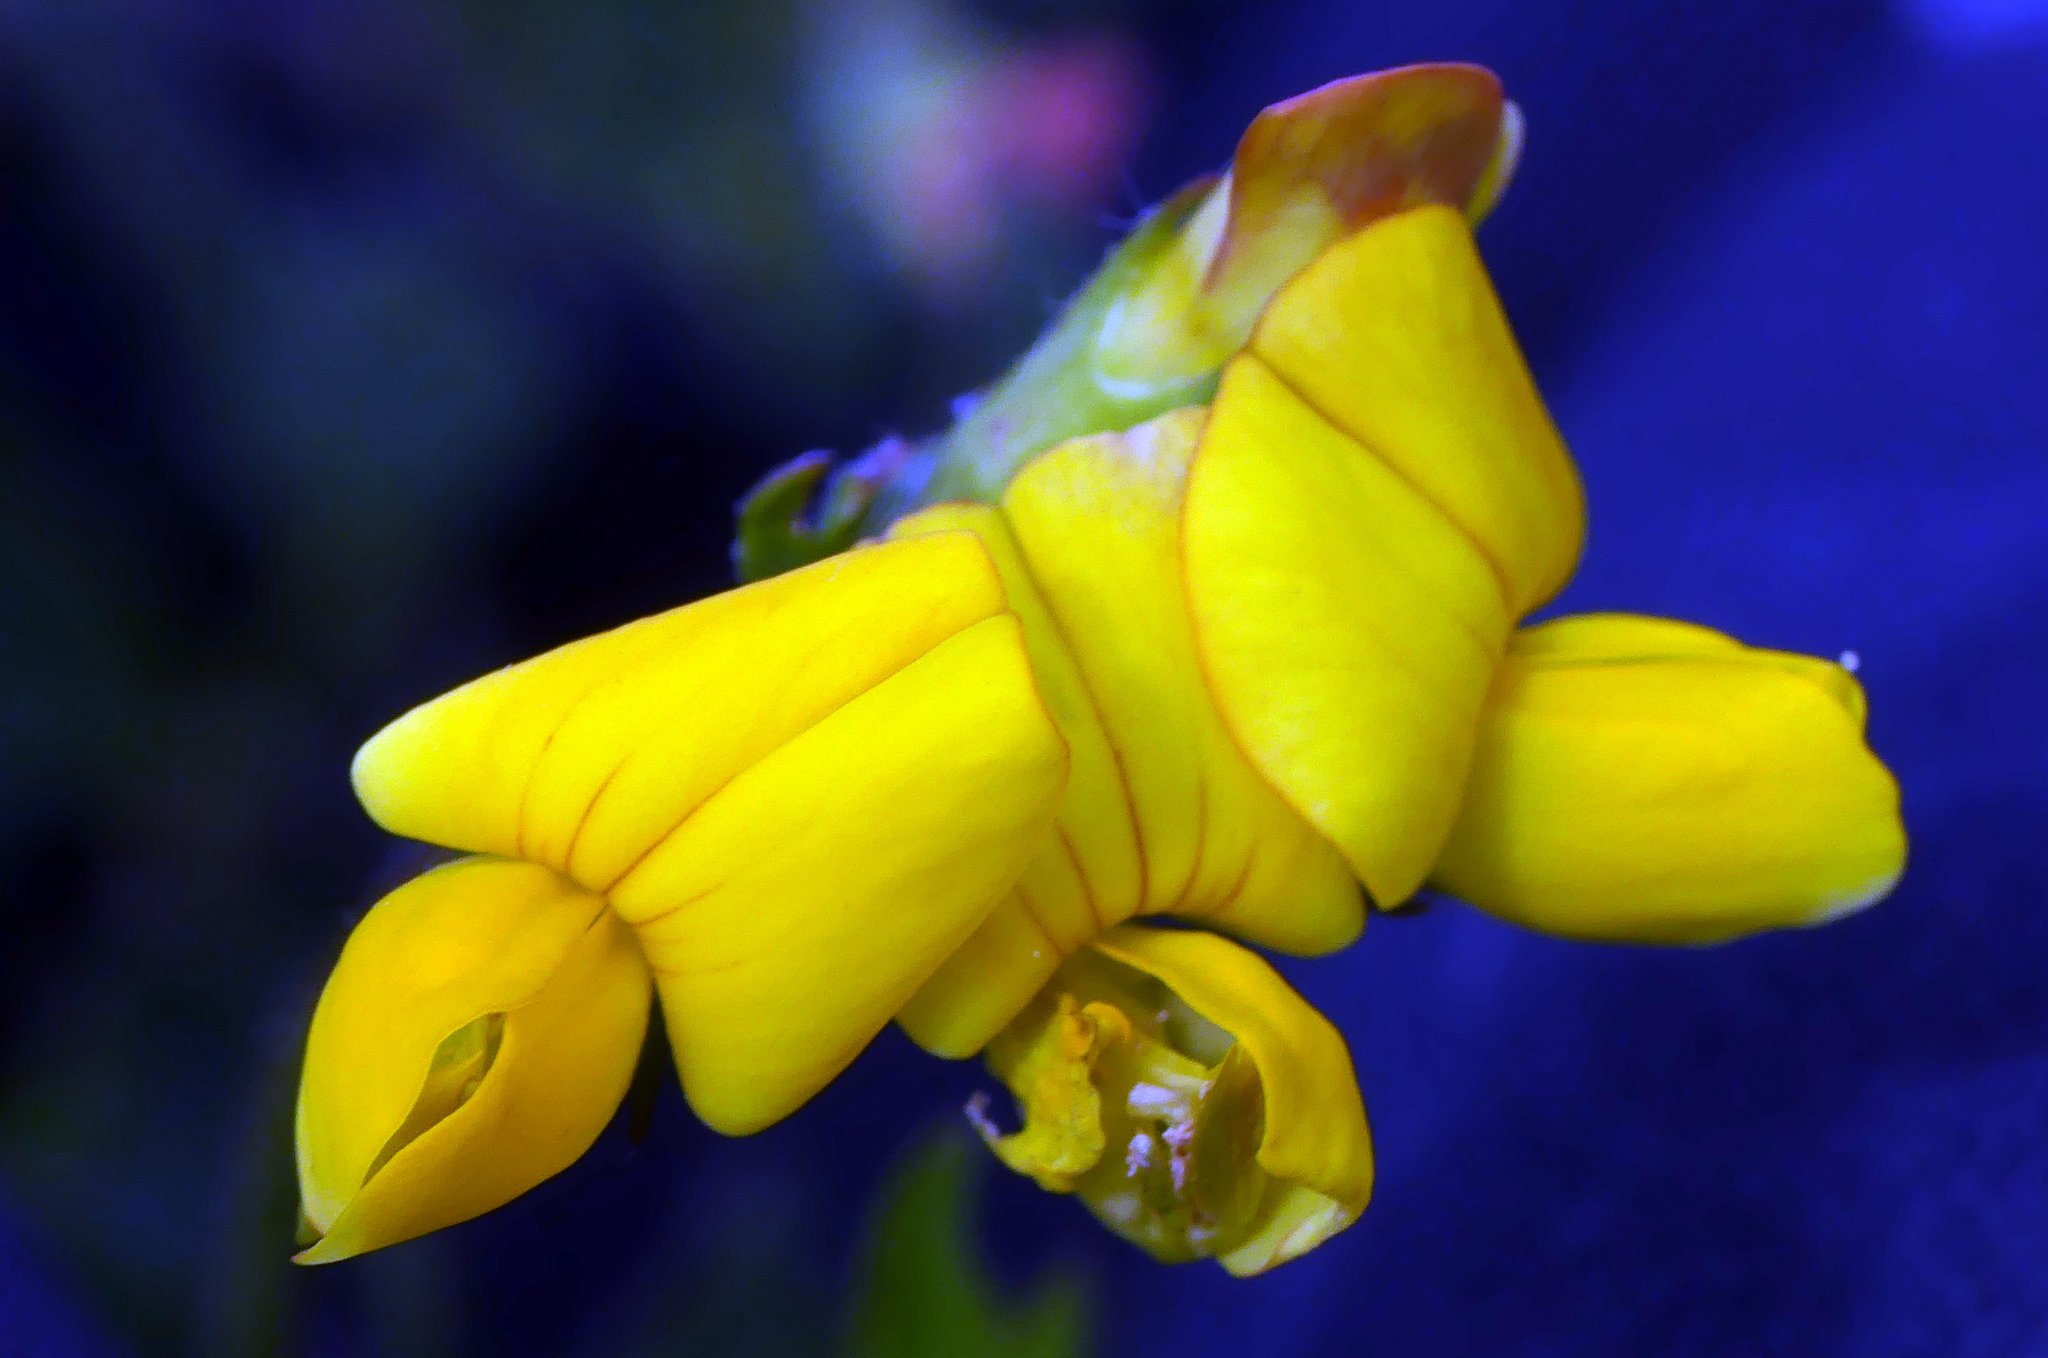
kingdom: Plantae
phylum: Tracheophyta
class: Magnoliopsida
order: Fabales
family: Fabaceae
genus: Lotus
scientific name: Lotus corniculatus
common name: Common bird's-foot-trefoil
